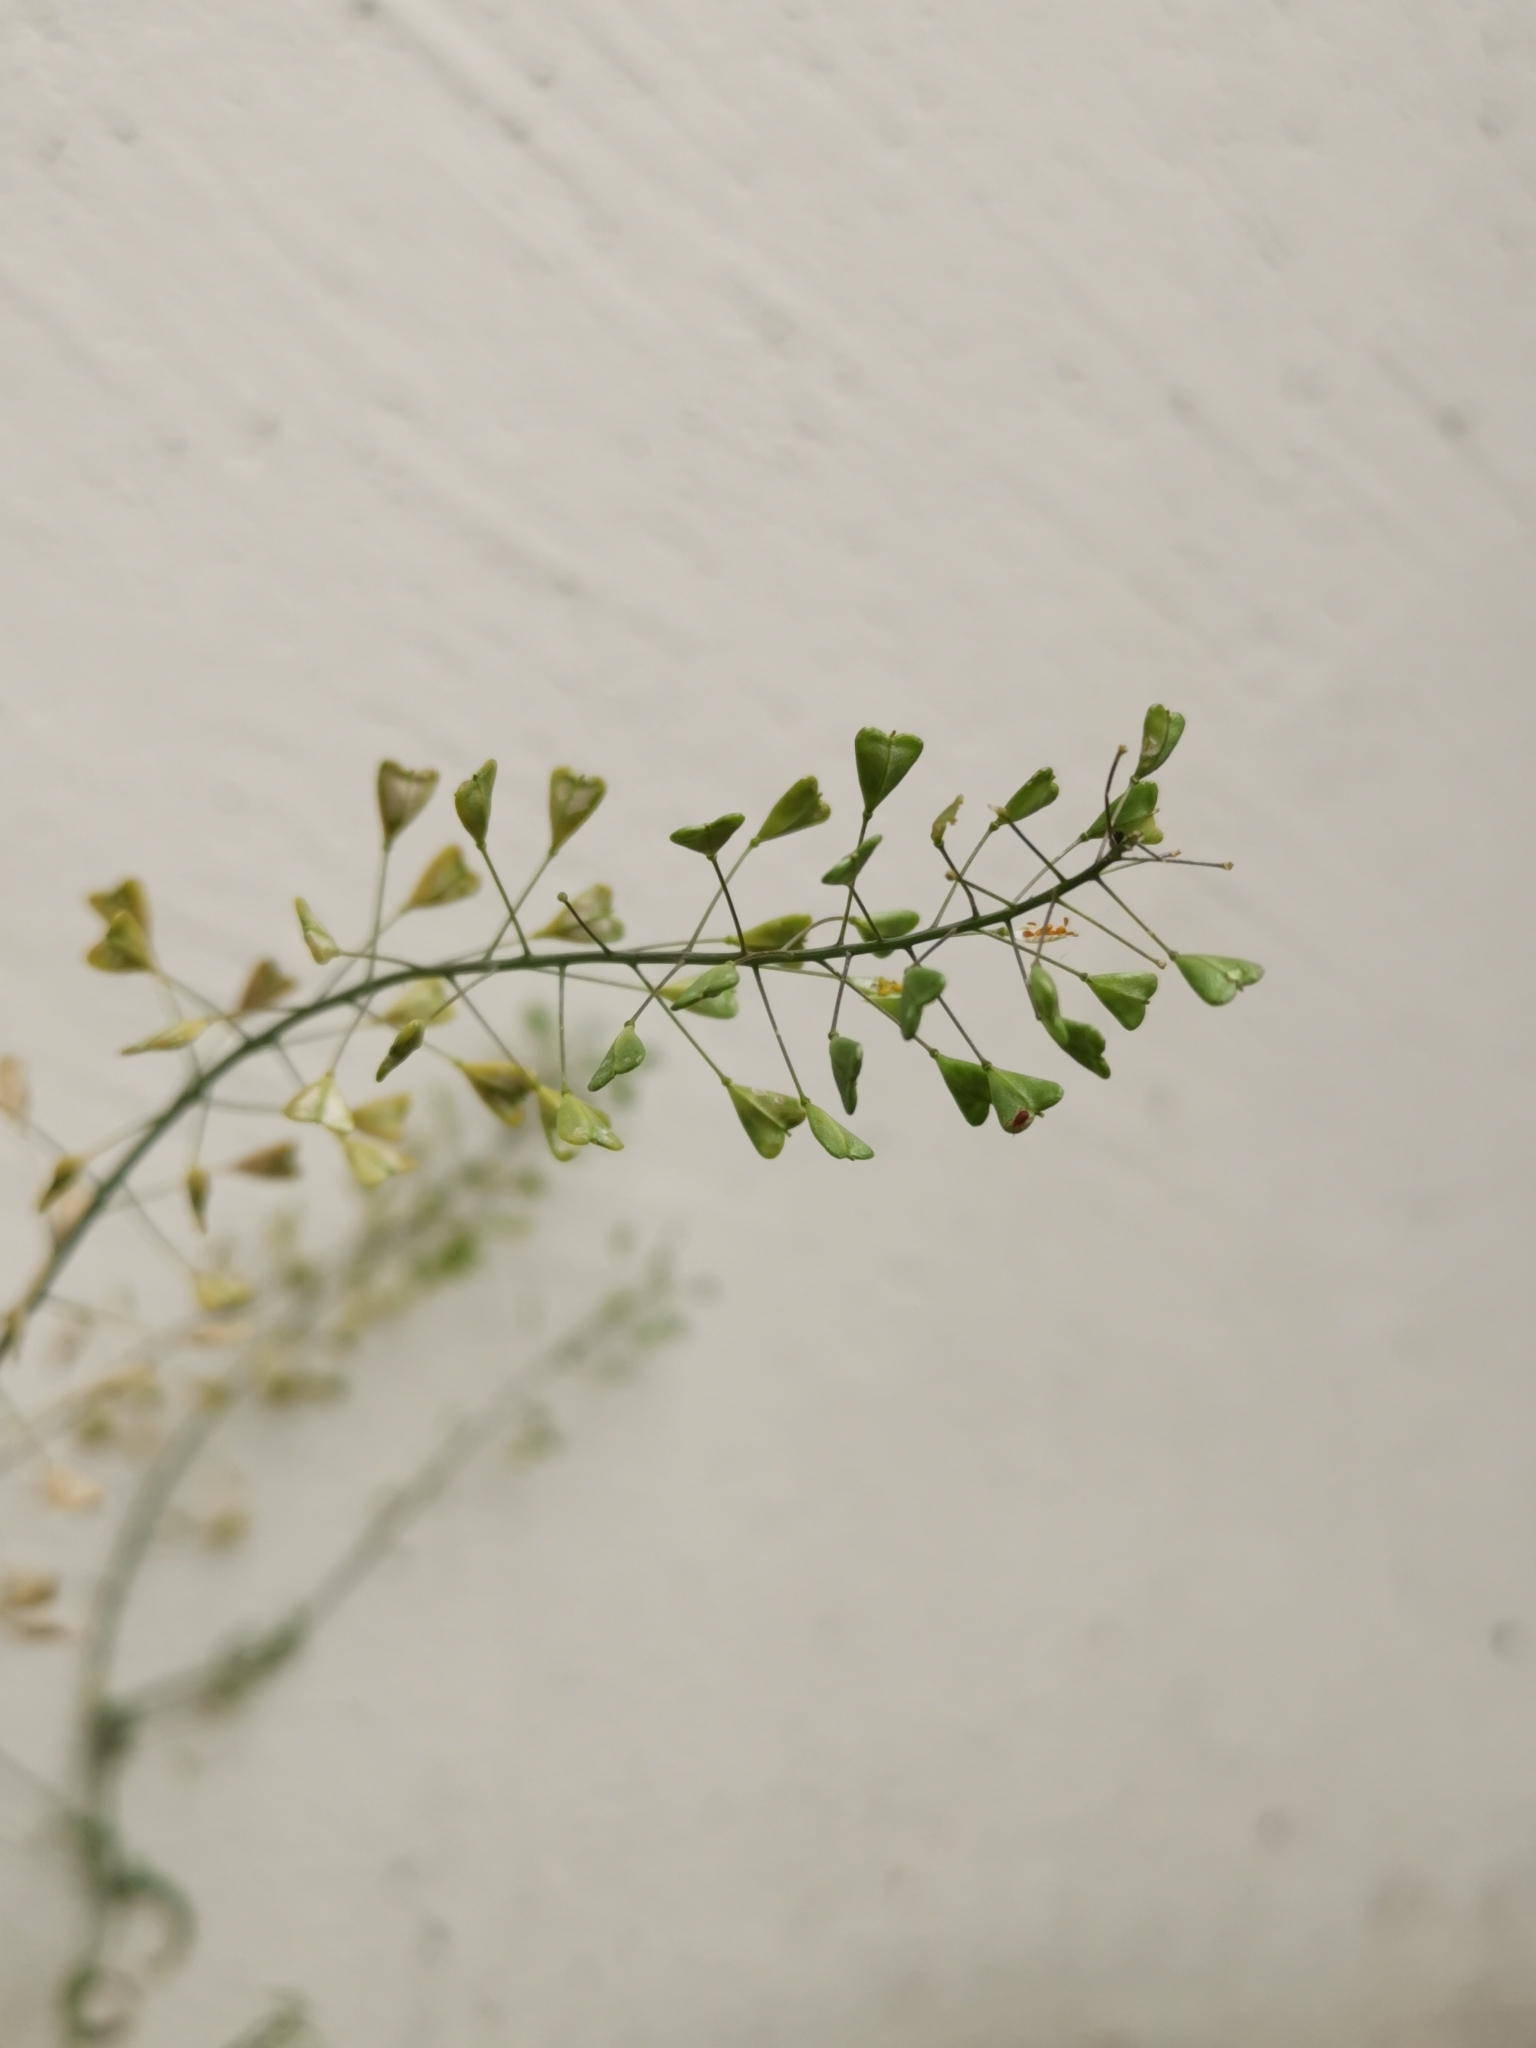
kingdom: Plantae
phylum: Tracheophyta
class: Magnoliopsida
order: Brassicales
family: Brassicaceae
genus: Capsella
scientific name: Capsella bursa-pastoris
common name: Shepherd's purse
